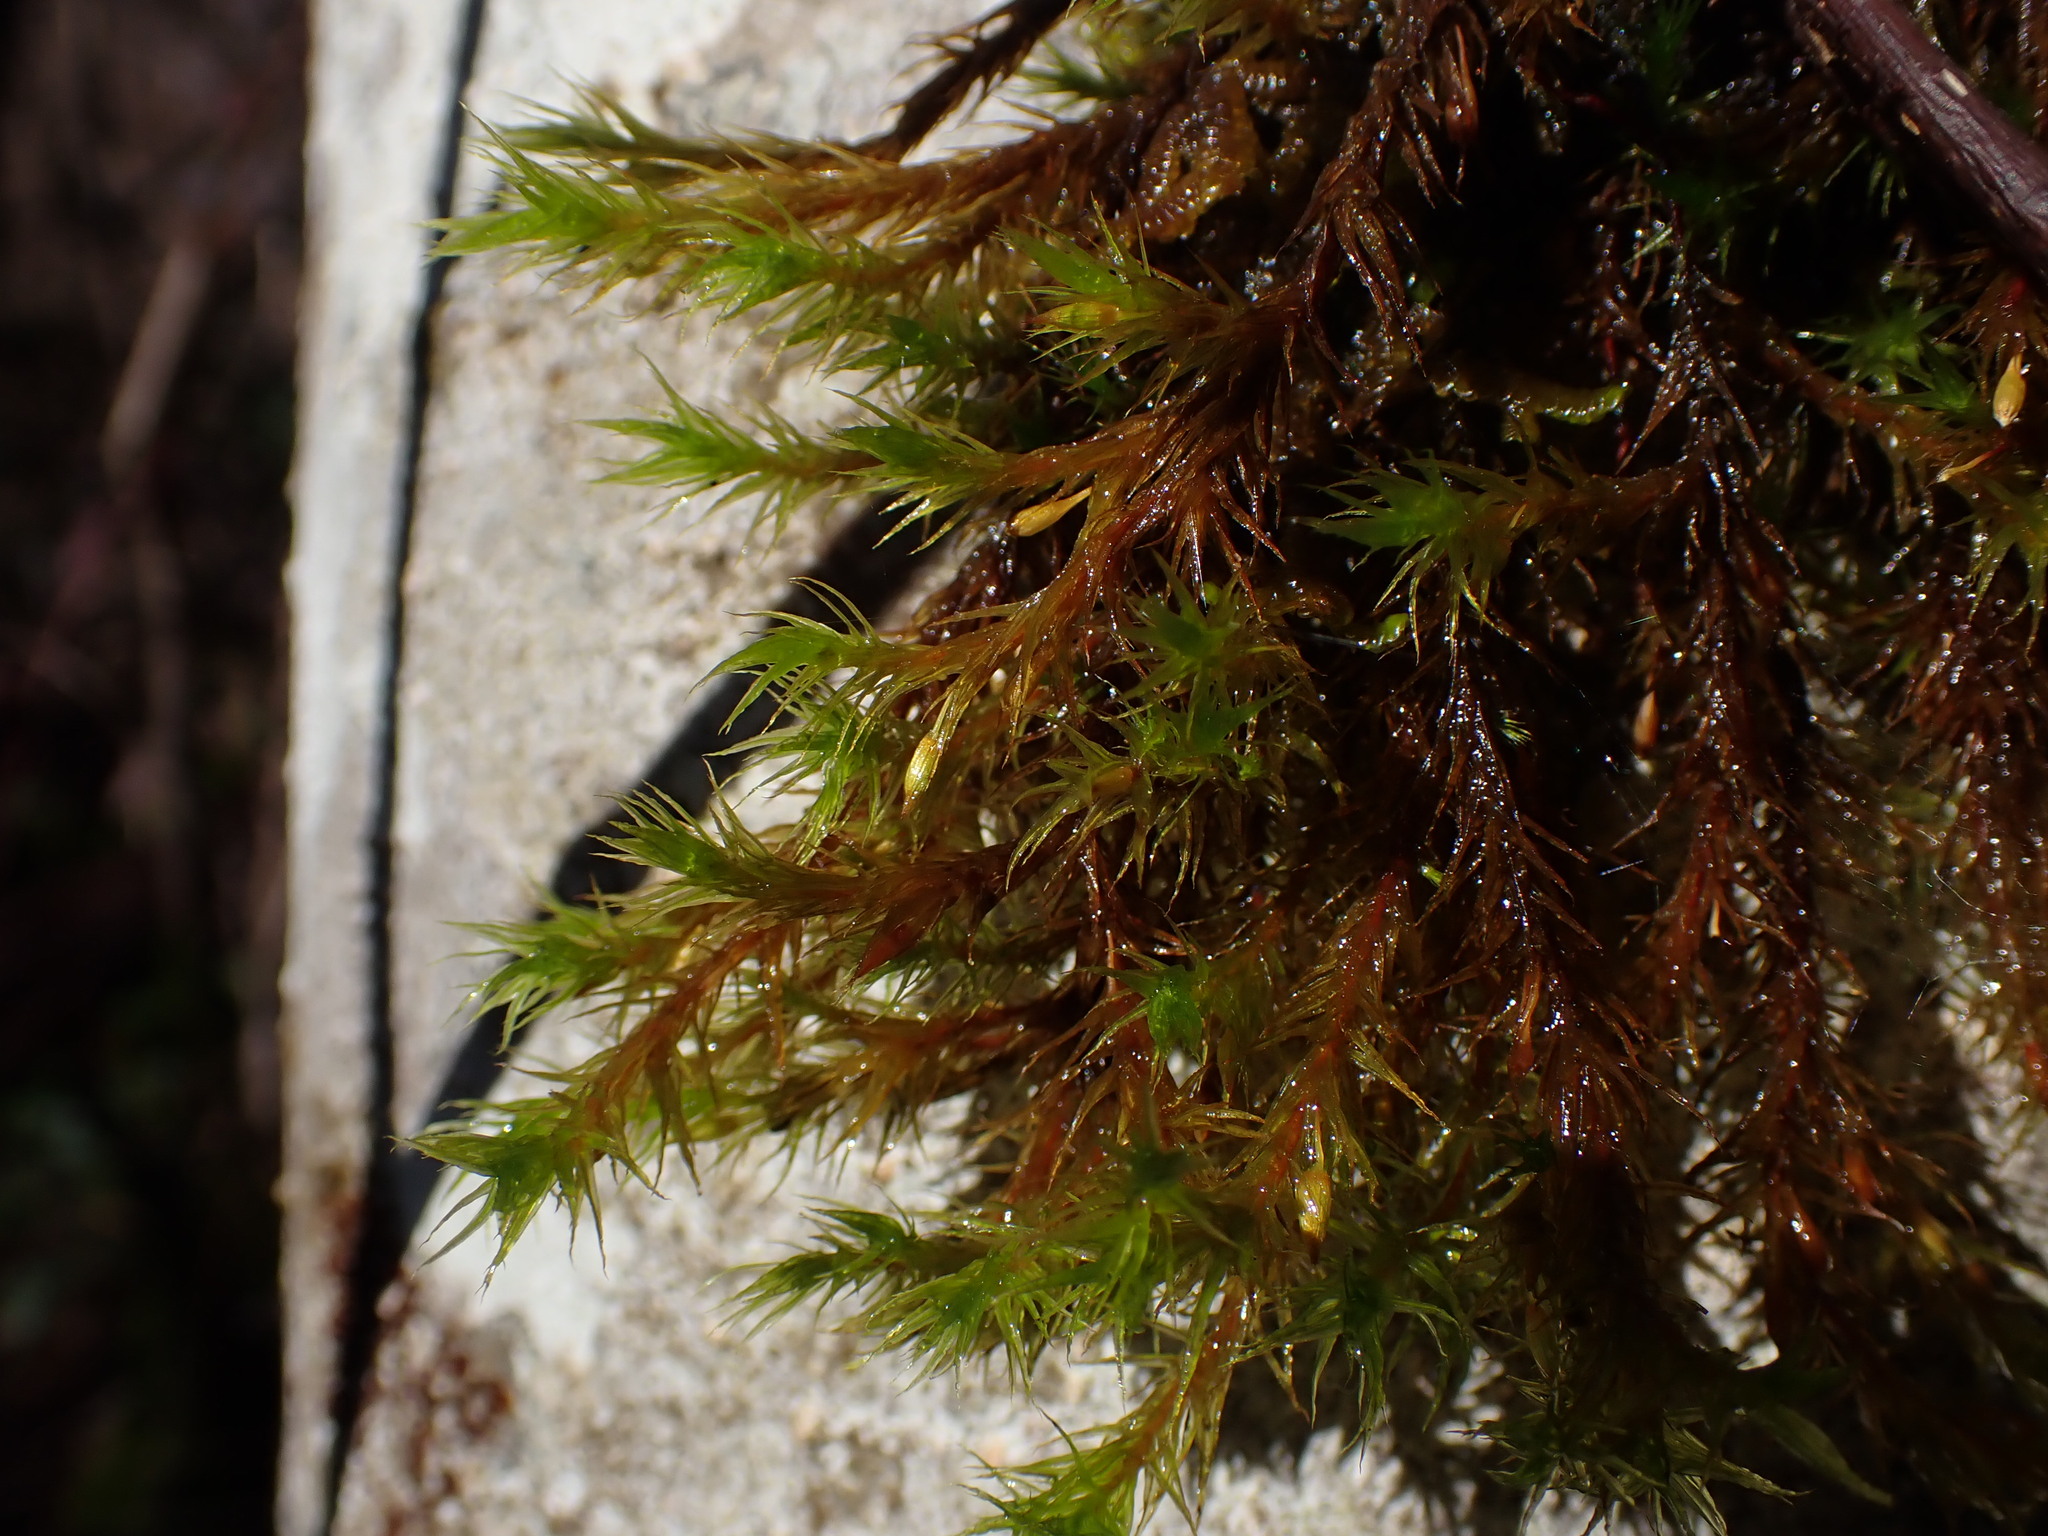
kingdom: Plantae
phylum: Bryophyta
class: Bryopsida
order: Orthotrichales
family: Orthotrichaceae
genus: Pulvigera
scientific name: Pulvigera pringlei
